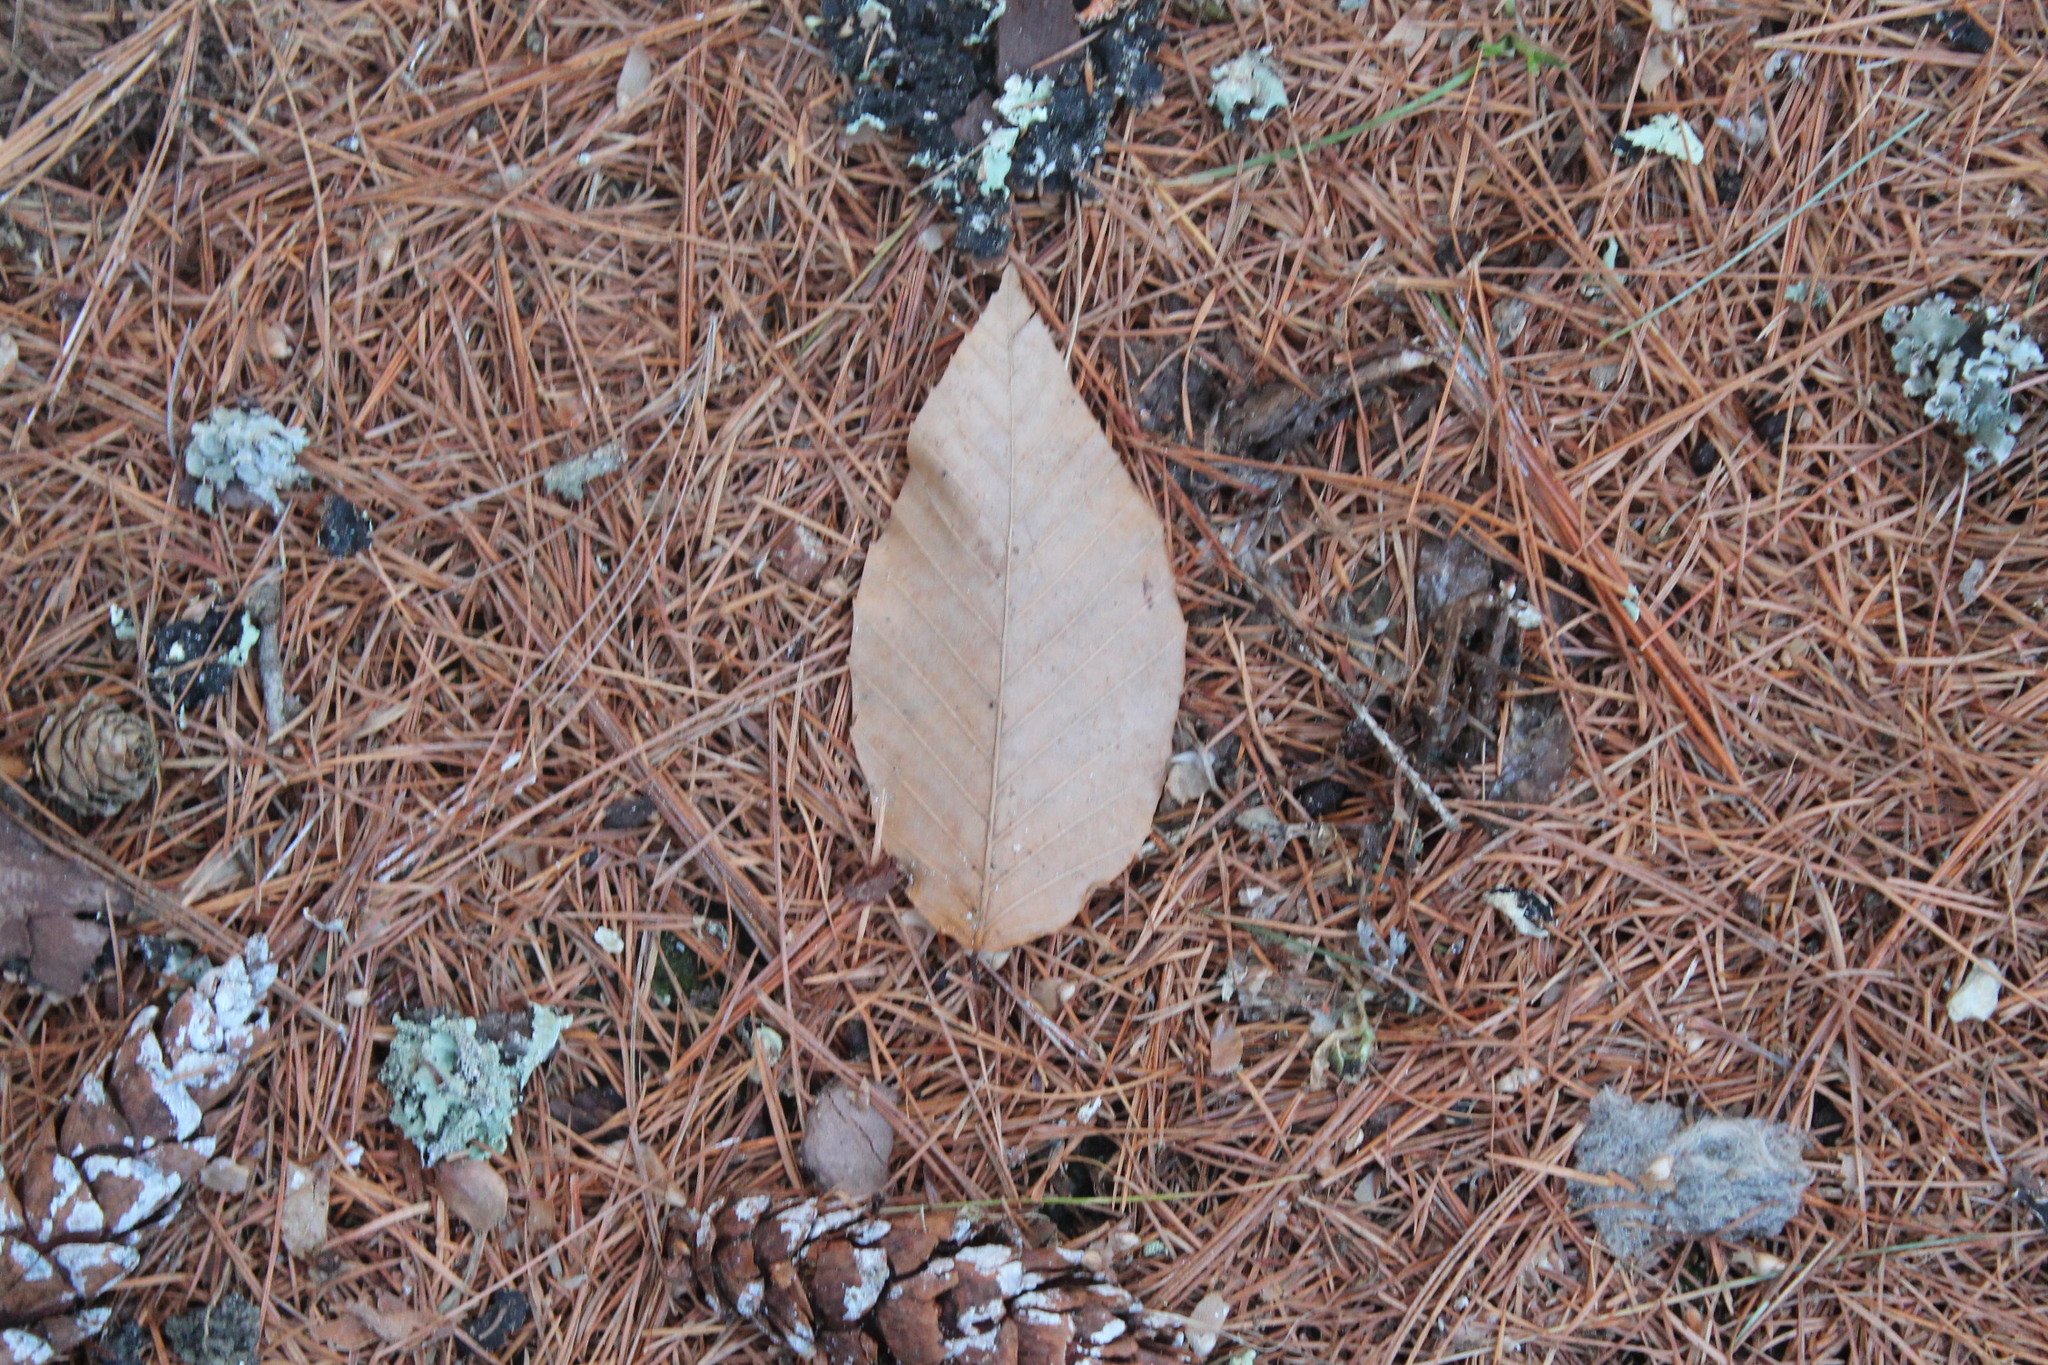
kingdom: Plantae
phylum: Tracheophyta
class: Magnoliopsida
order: Fagales
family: Fagaceae
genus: Fagus
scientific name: Fagus grandifolia
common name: American beech
